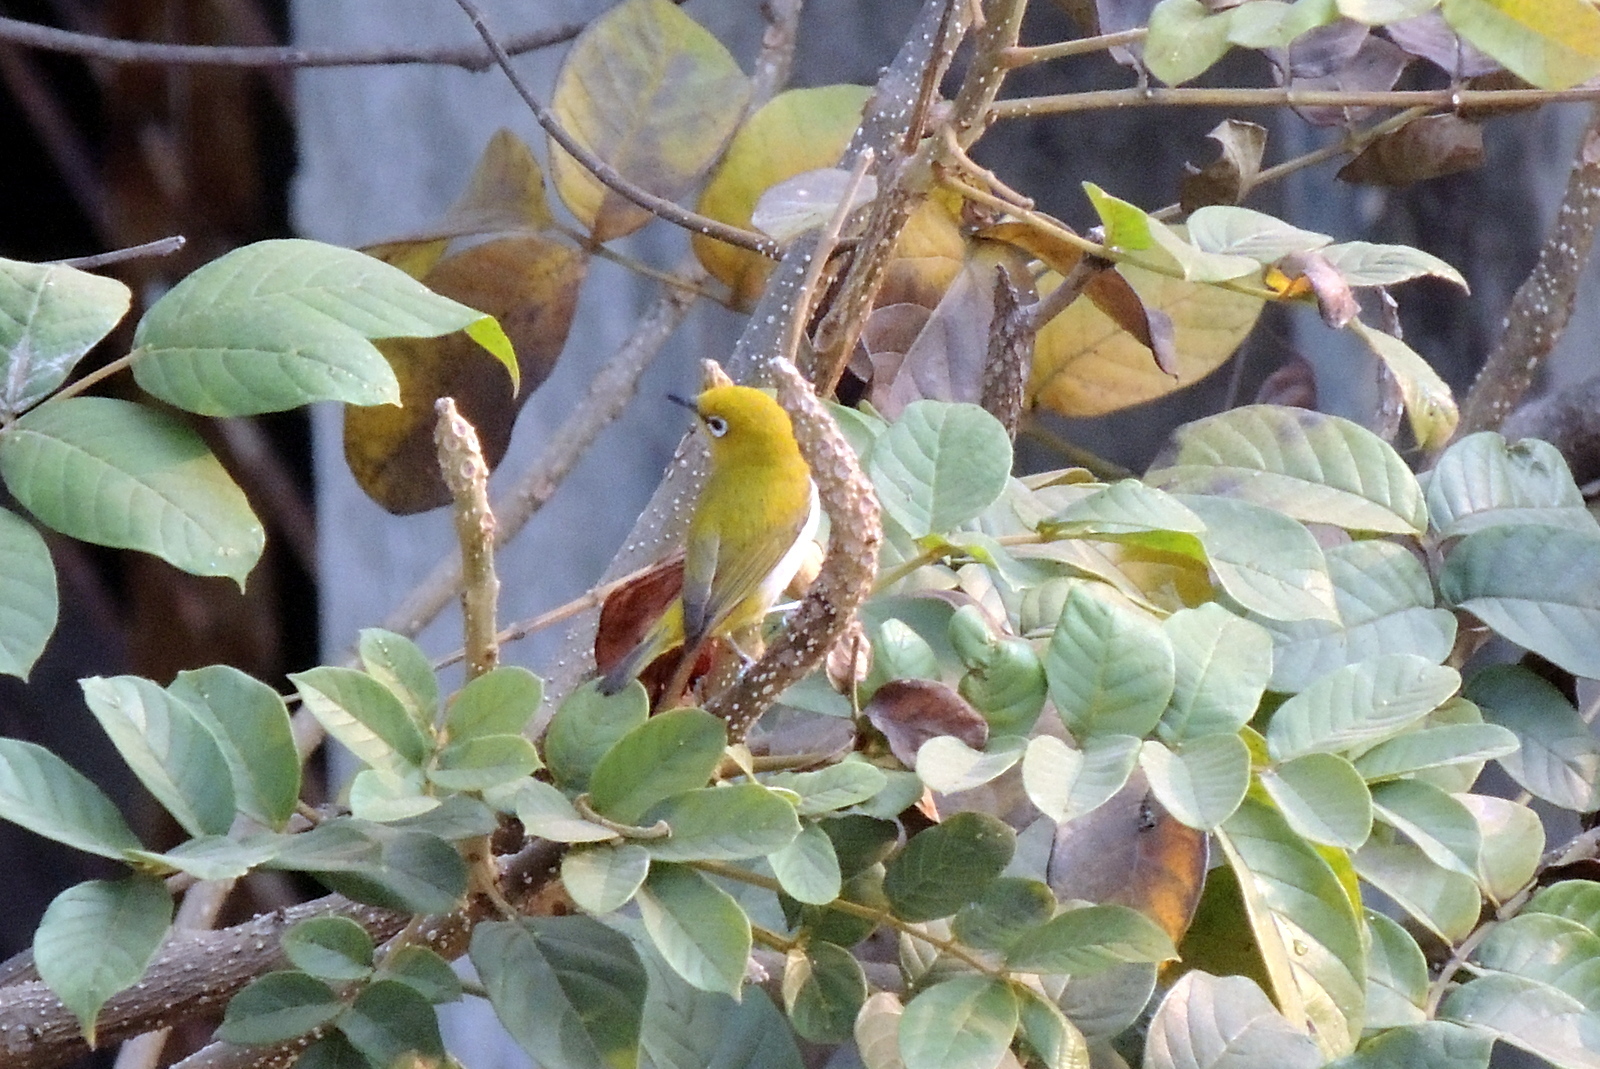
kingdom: Animalia
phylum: Chordata
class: Aves
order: Passeriformes
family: Zosteropidae
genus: Zosterops
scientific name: Zosterops palpebrosus
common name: Oriental white-eye
